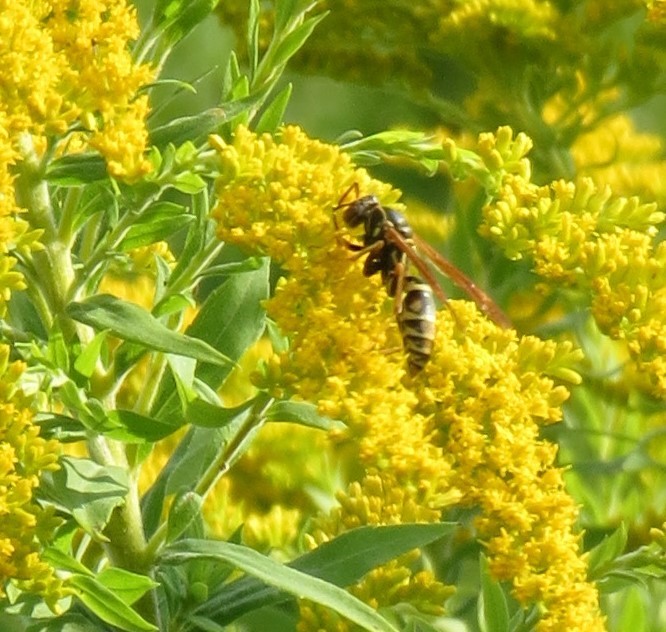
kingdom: Animalia
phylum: Arthropoda
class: Insecta
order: Hymenoptera
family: Eumenidae
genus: Polistes
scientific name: Polistes fuscatus
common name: Dark paper wasp
